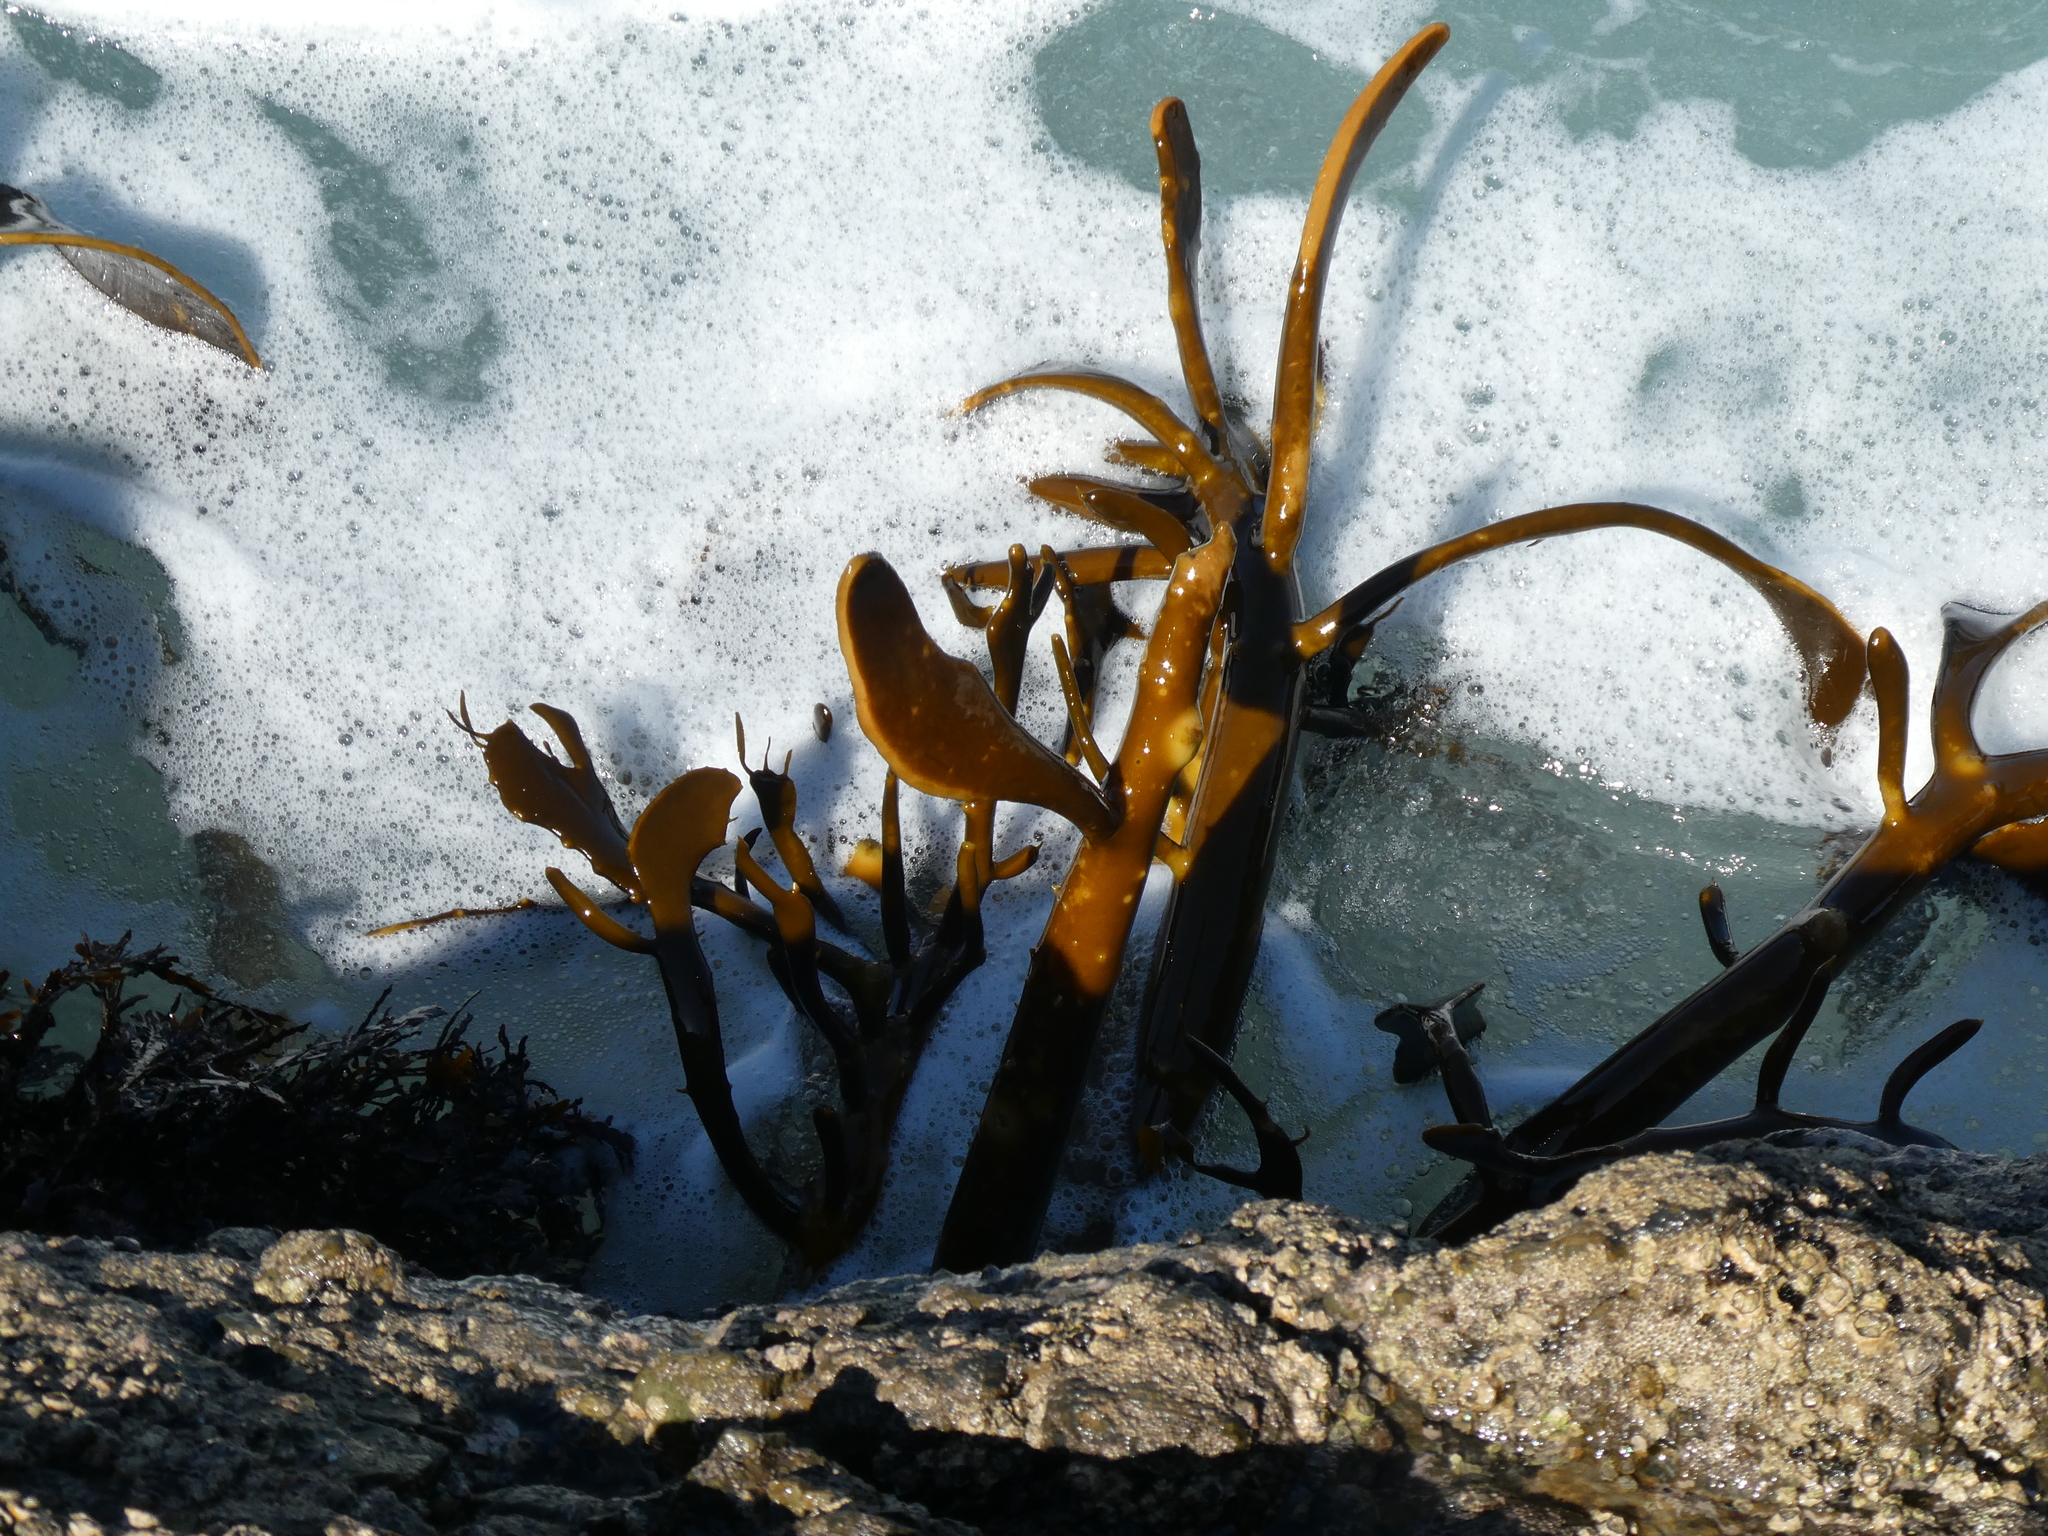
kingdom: Chromista
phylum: Ochrophyta
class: Phaeophyceae
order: Fucales
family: Durvillaeaceae
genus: Durvillaea
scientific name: Durvillaea willana
